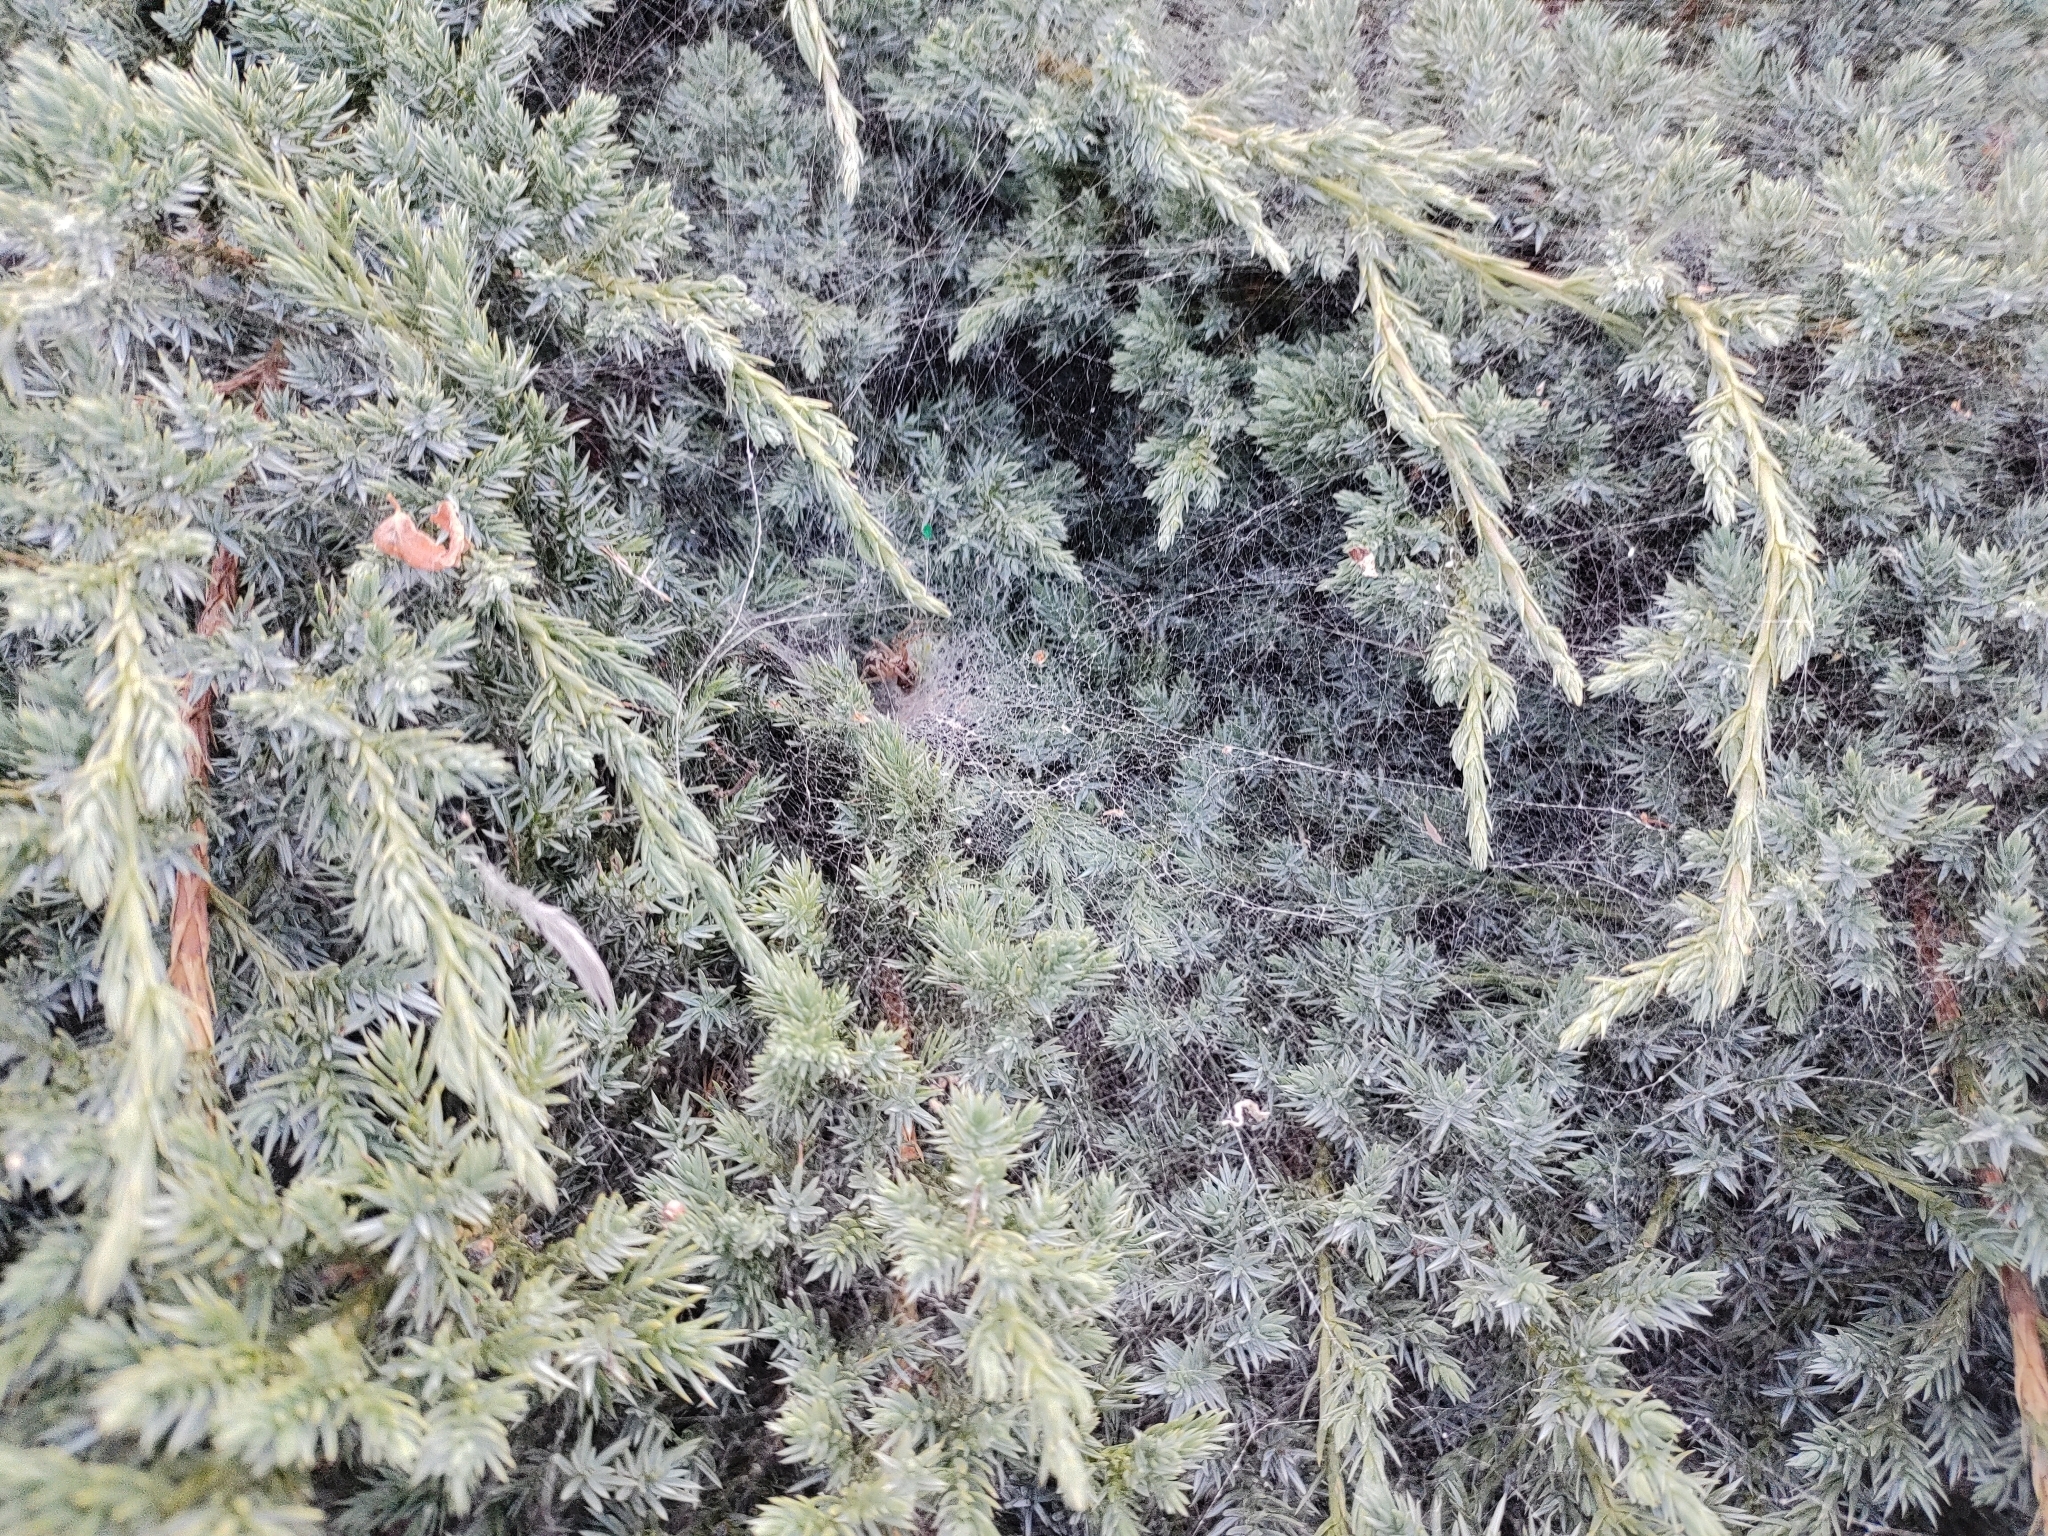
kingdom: Animalia
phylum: Arthropoda
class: Arachnida
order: Araneae
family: Agelenidae
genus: Agelena
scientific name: Agelena labyrinthica
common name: Labyrinth spider
